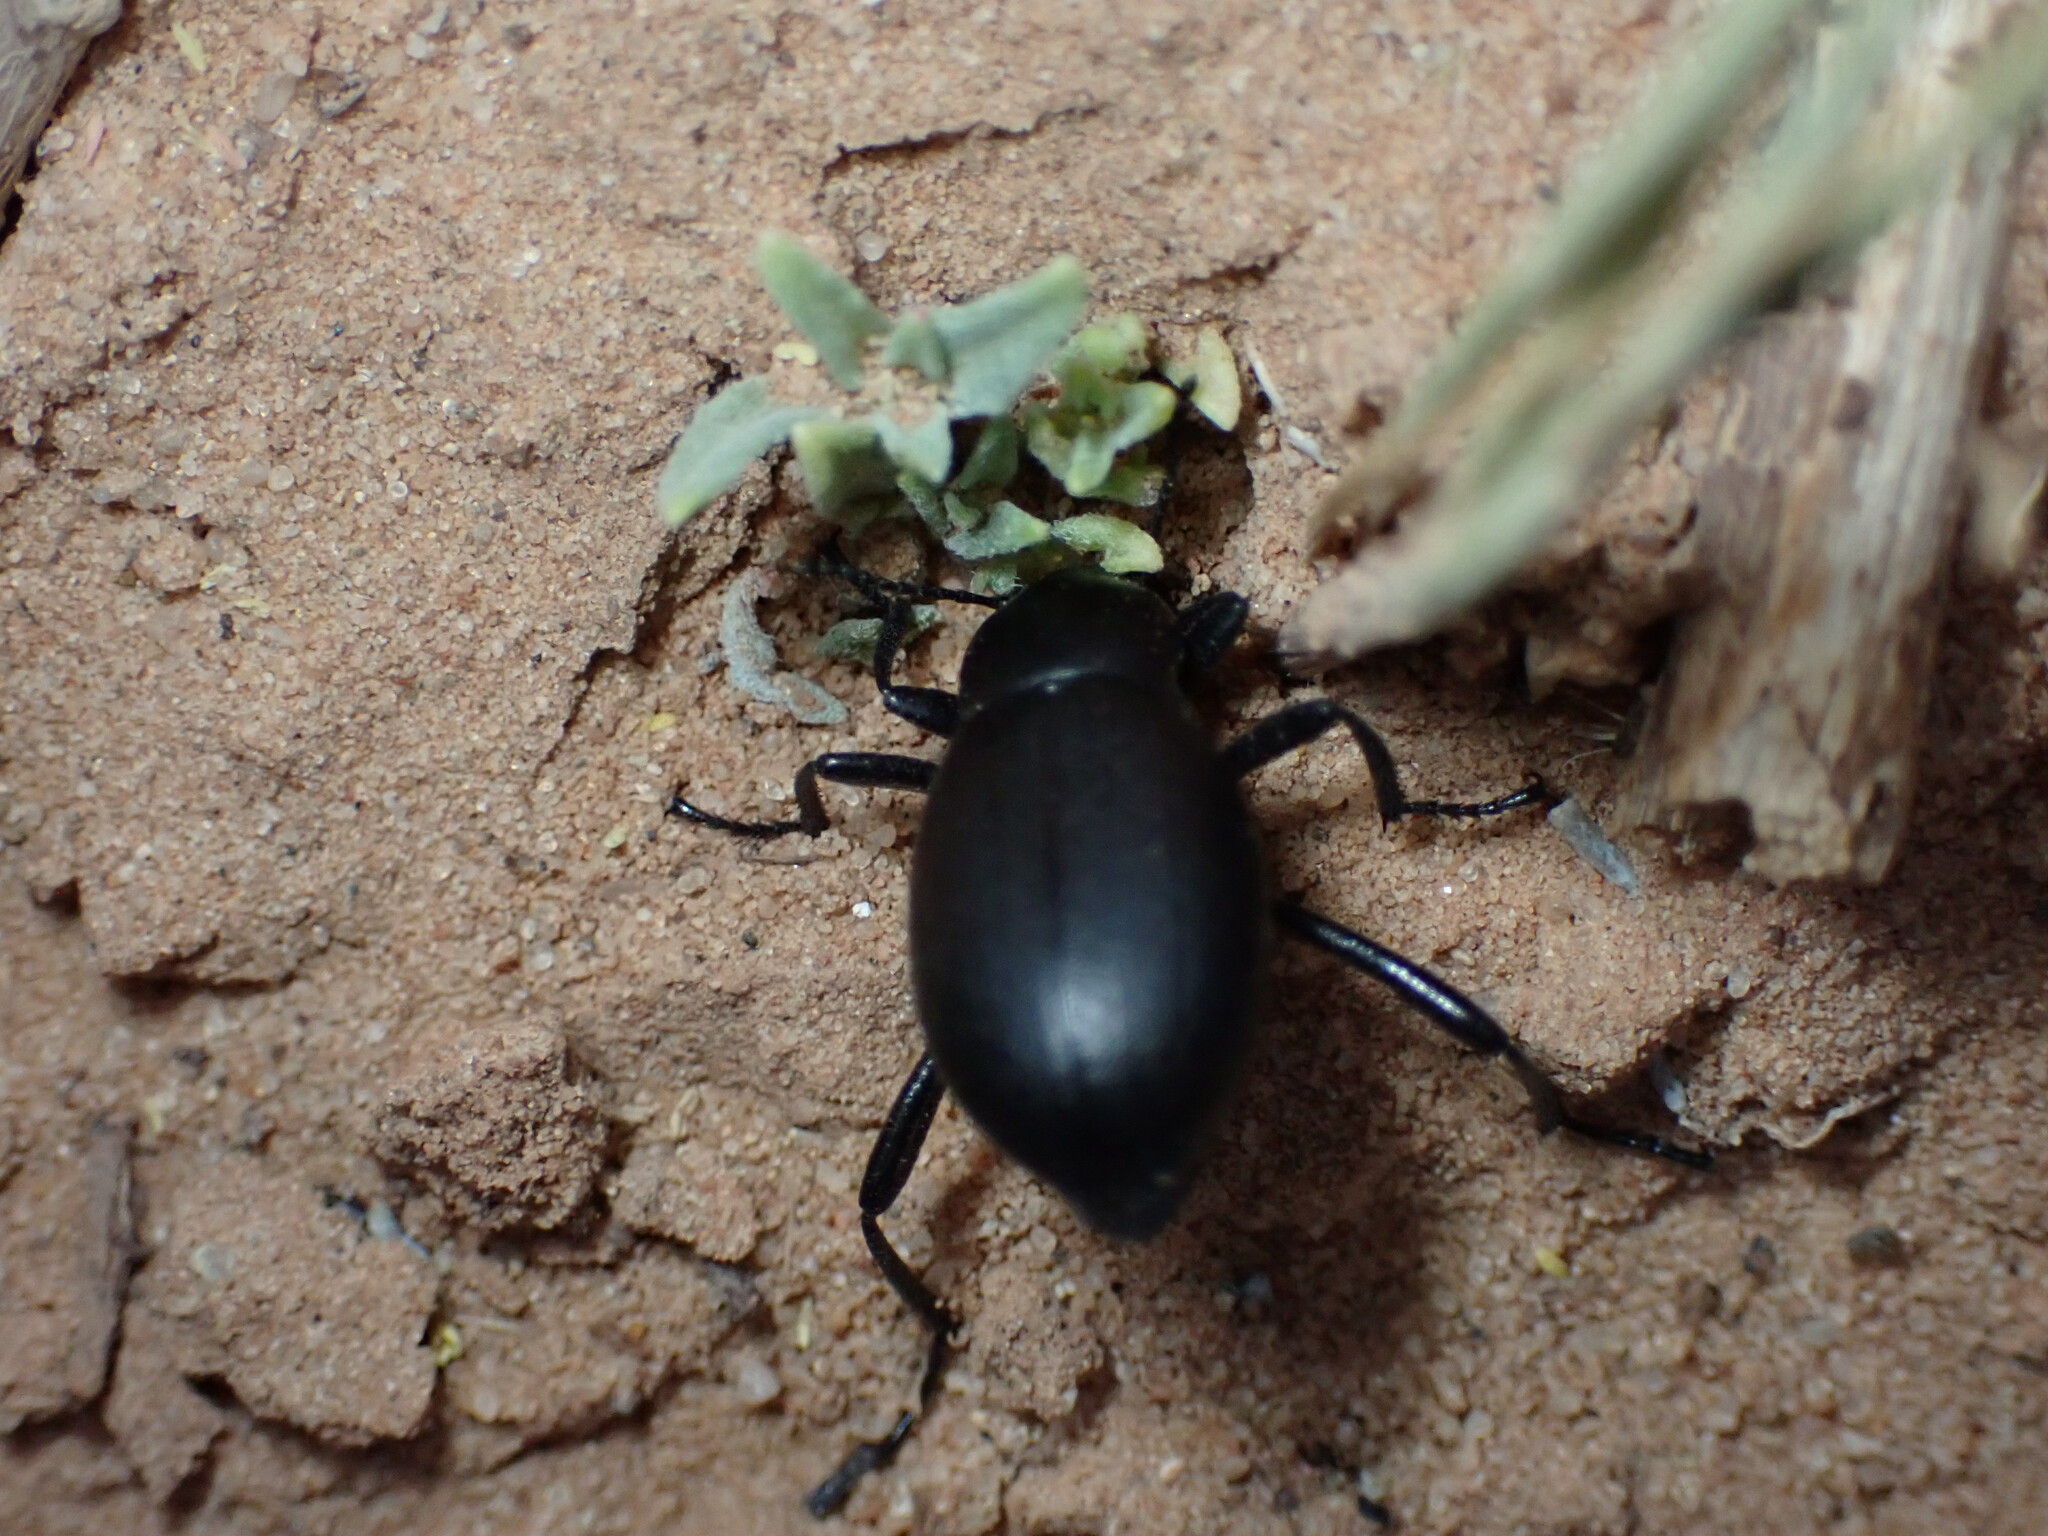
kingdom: Animalia
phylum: Arthropoda
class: Insecta
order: Coleoptera
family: Tenebrionidae
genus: Eleodes
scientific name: Eleodes extricata
